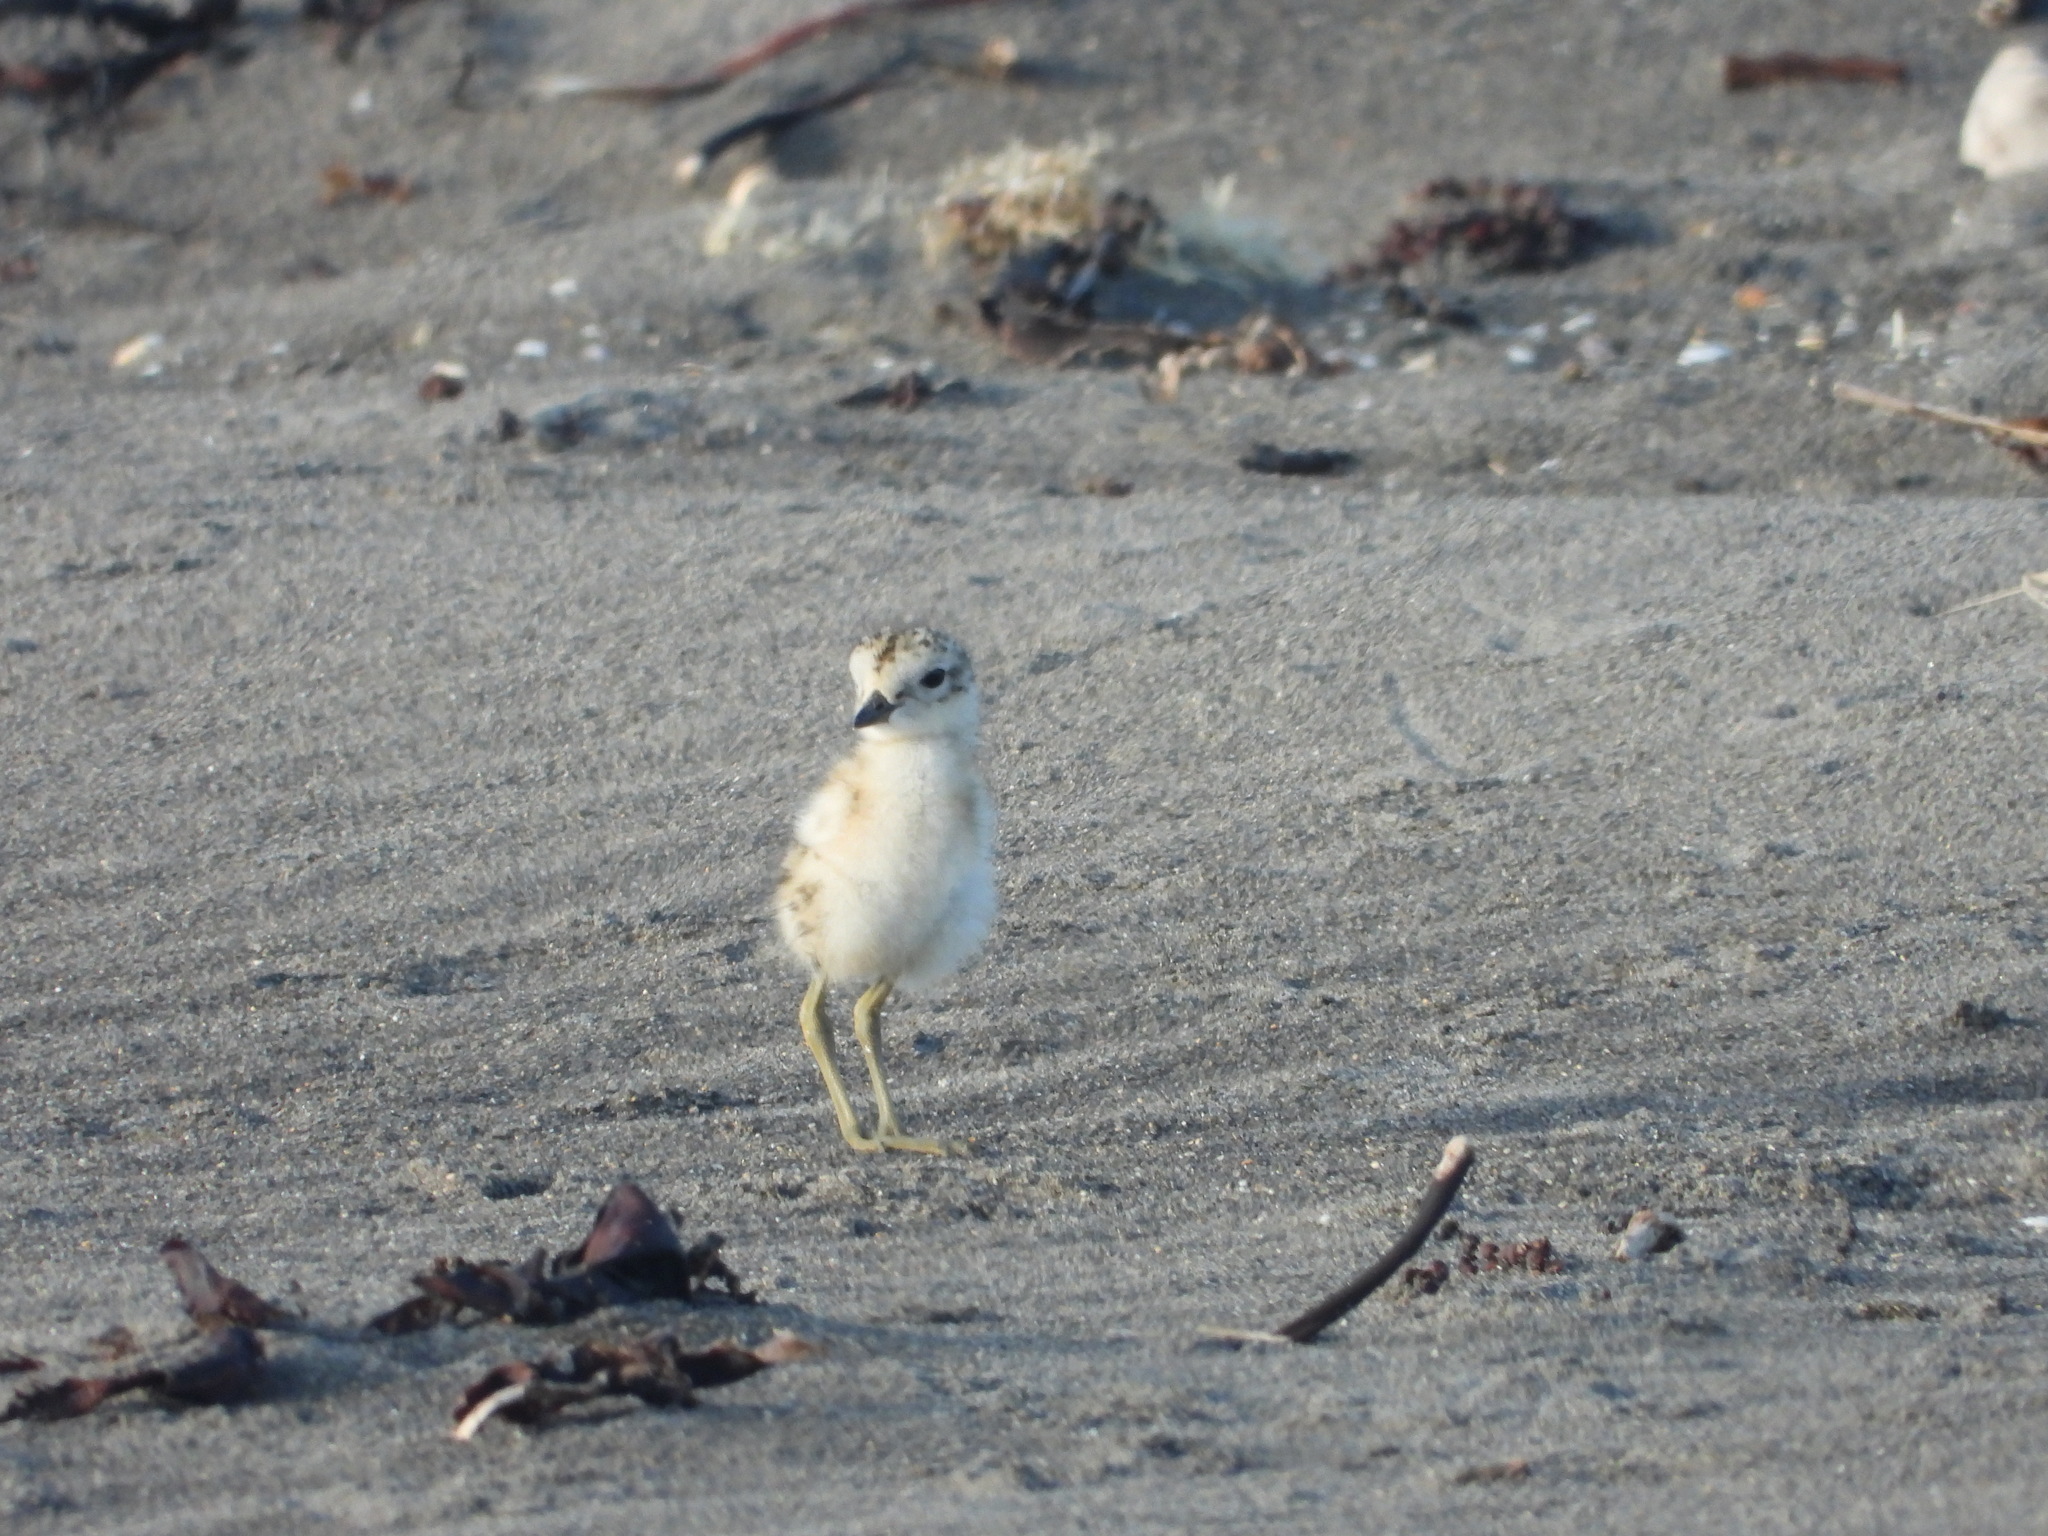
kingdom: Animalia
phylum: Chordata
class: Aves
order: Charadriiformes
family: Charadriidae
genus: Anarhynchus
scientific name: Anarhynchus
